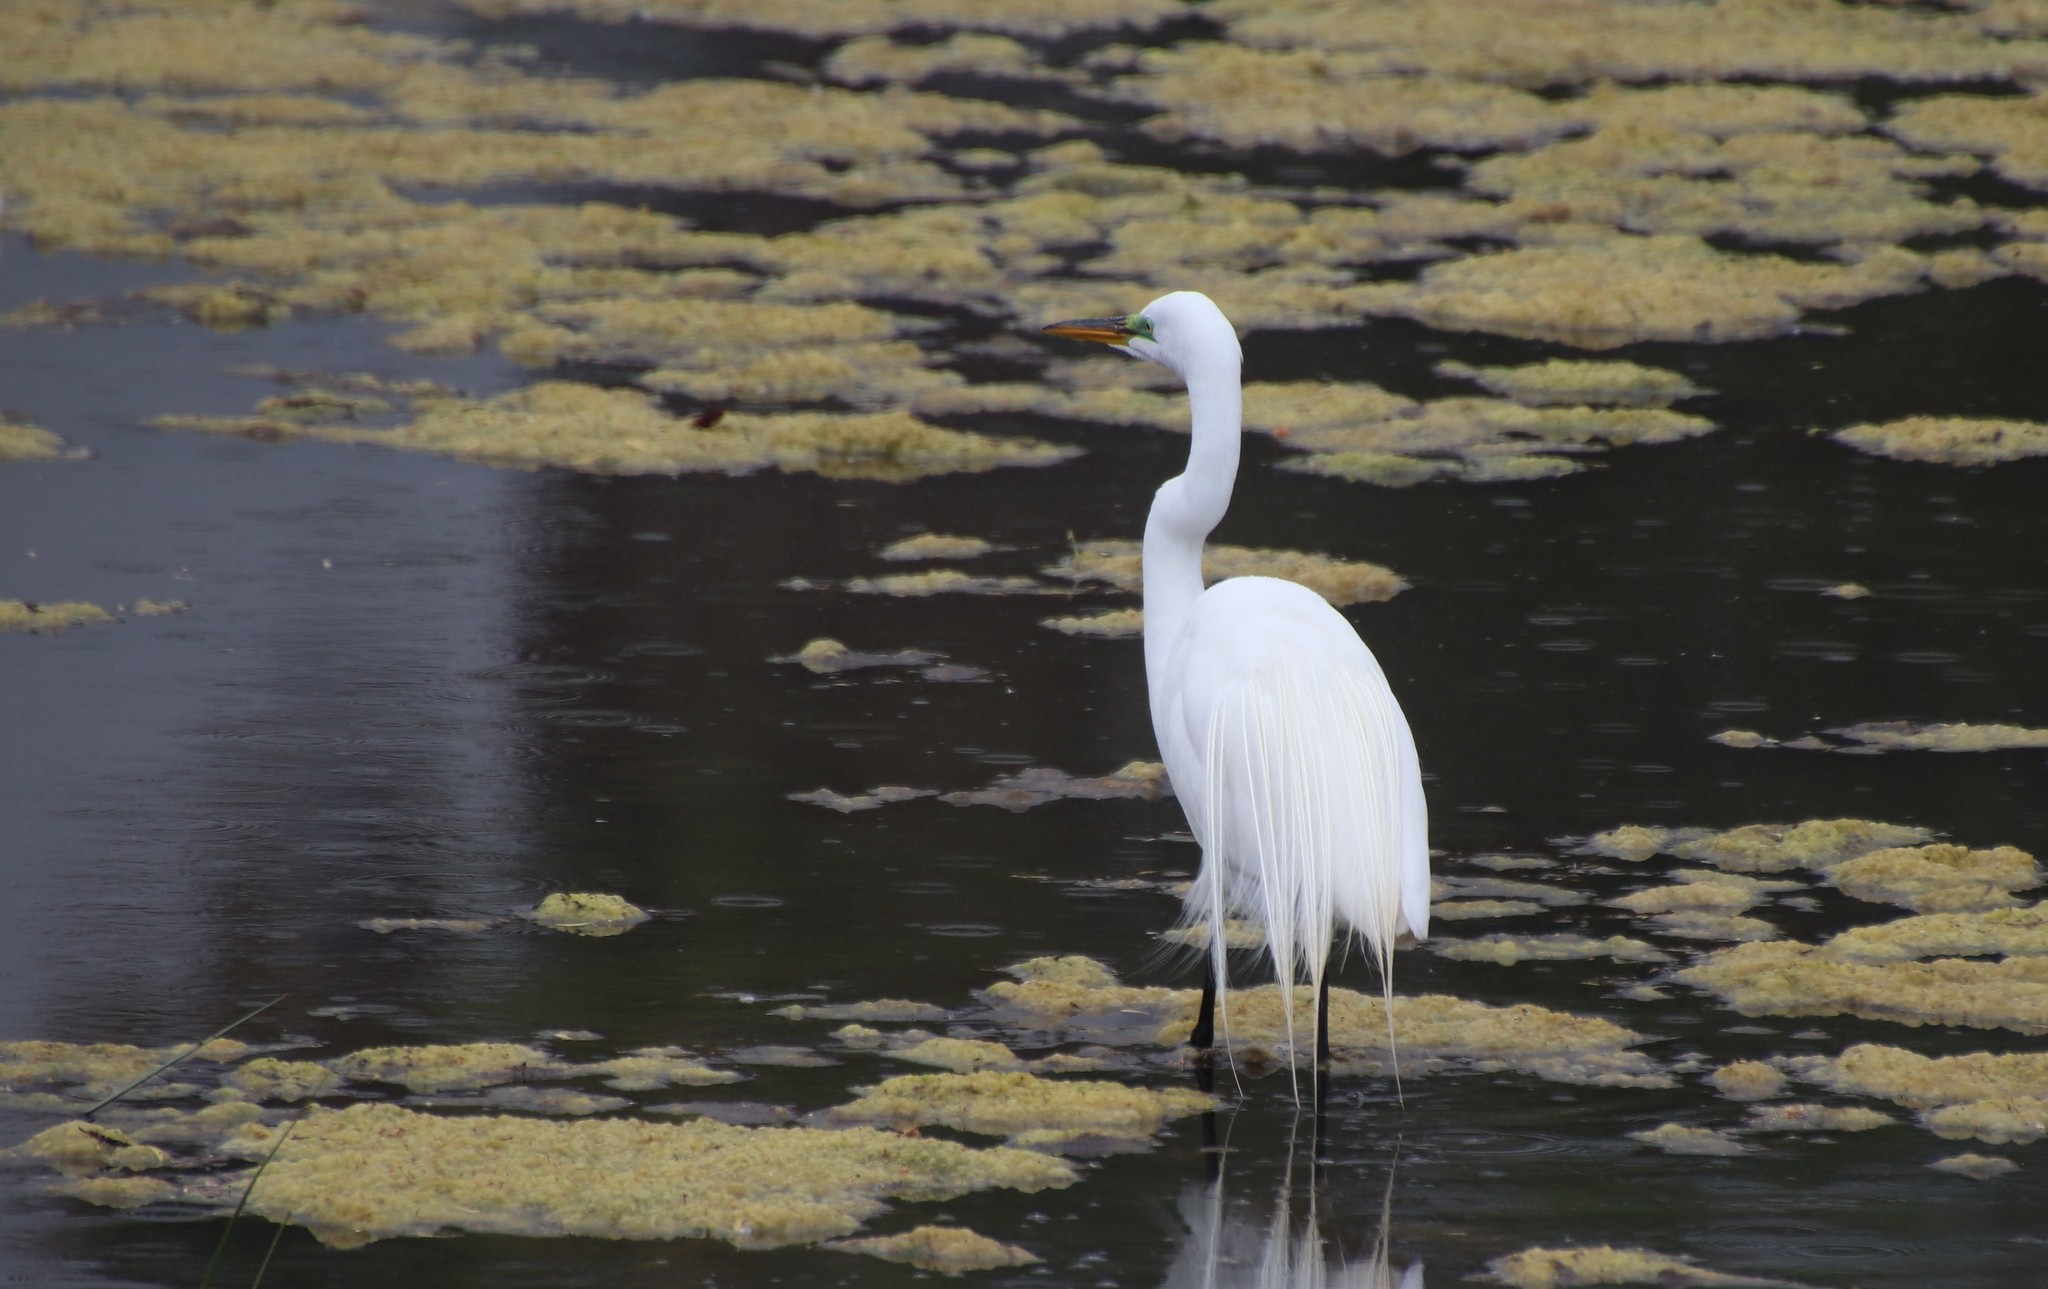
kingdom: Animalia
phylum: Chordata
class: Aves
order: Pelecaniformes
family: Ardeidae
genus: Ardea
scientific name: Ardea alba
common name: Great egret
